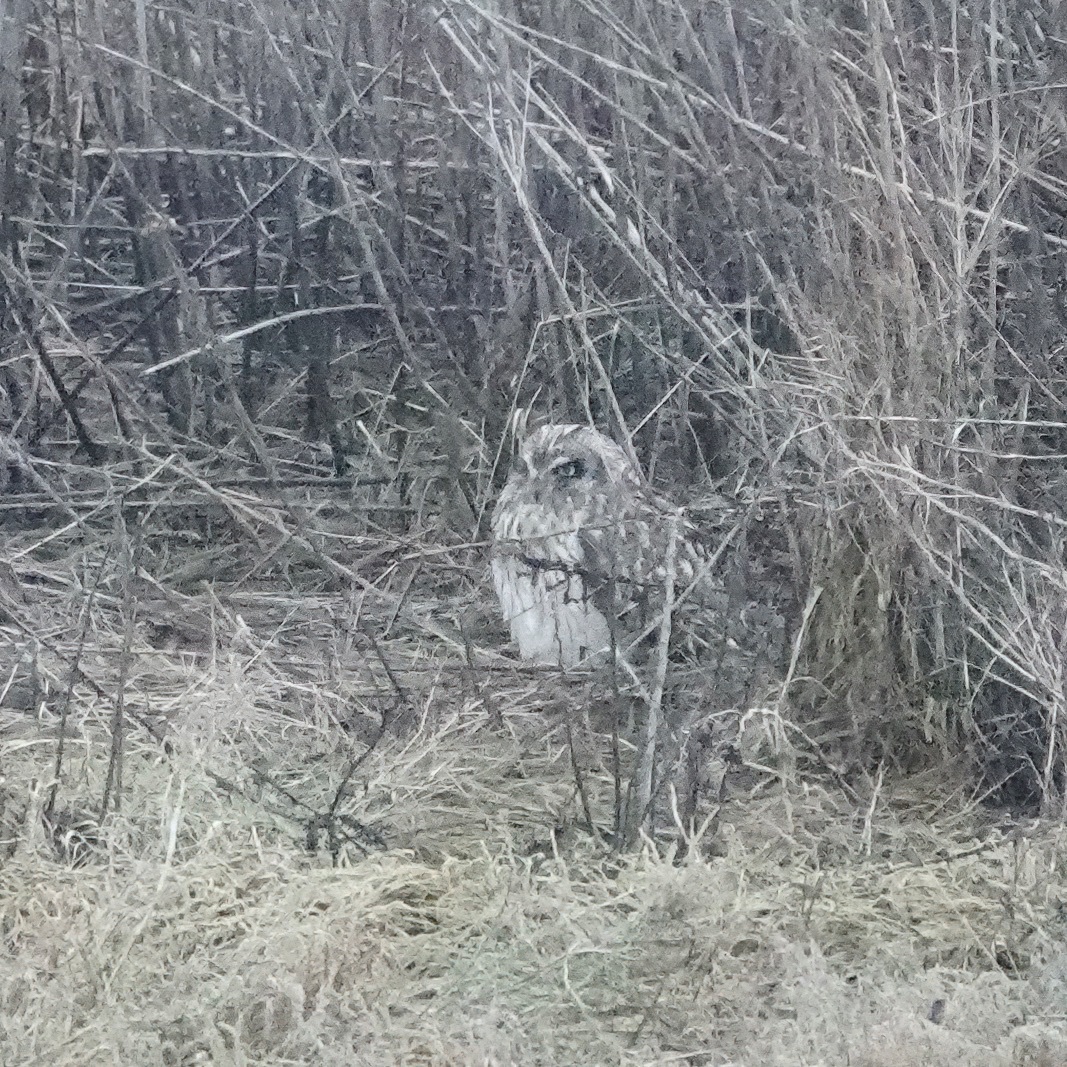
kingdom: Animalia
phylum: Chordata
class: Aves
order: Strigiformes
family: Strigidae
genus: Asio
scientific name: Asio flammeus
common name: Short-eared owl
